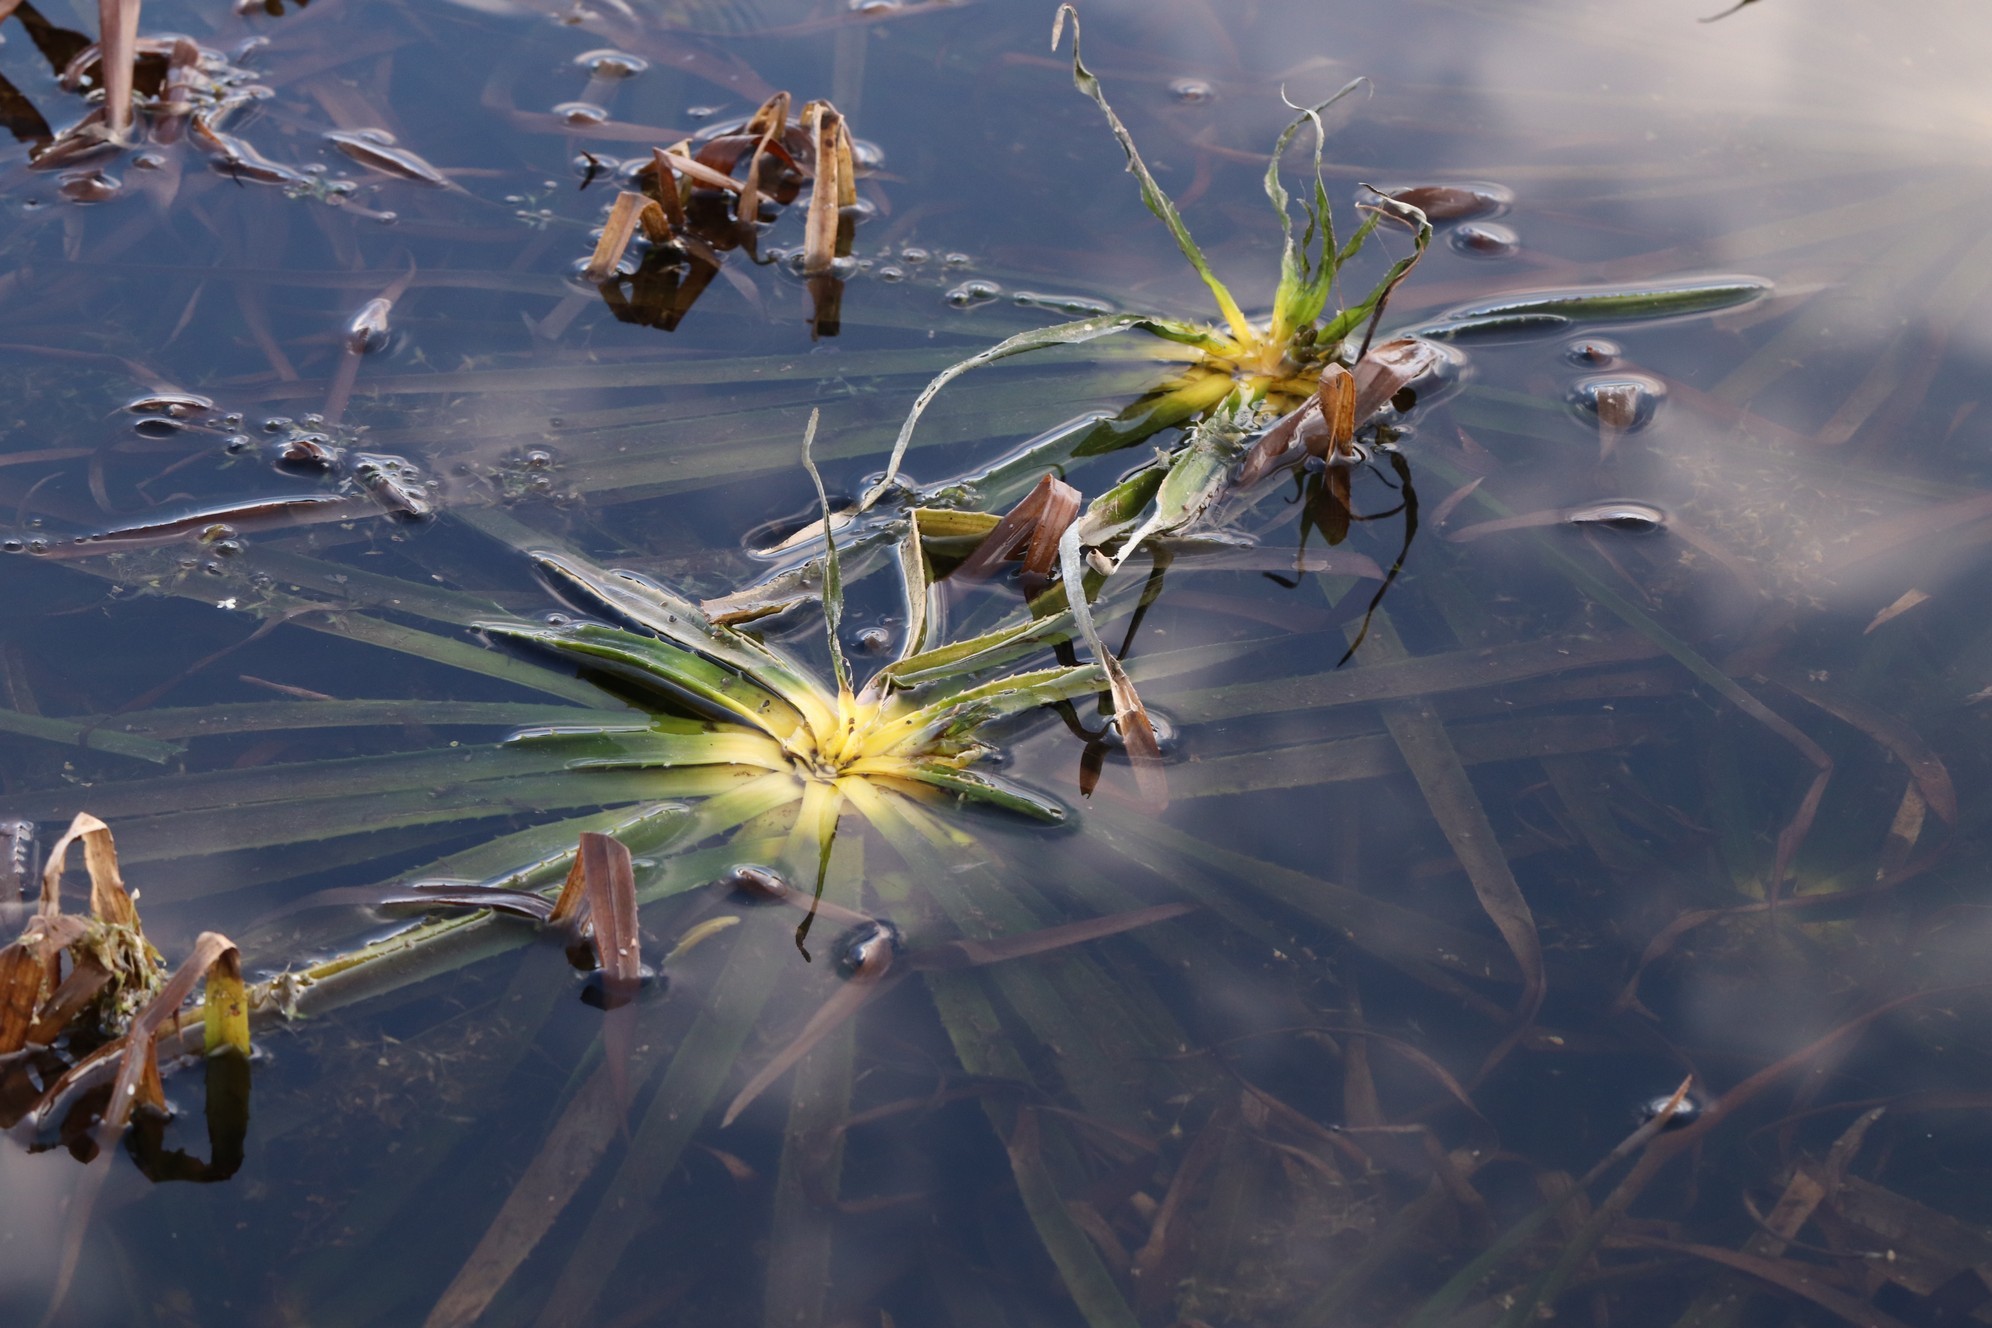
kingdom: Plantae
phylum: Tracheophyta
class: Liliopsida
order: Alismatales
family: Hydrocharitaceae
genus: Stratiotes
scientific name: Stratiotes aloides
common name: Water-soldier
